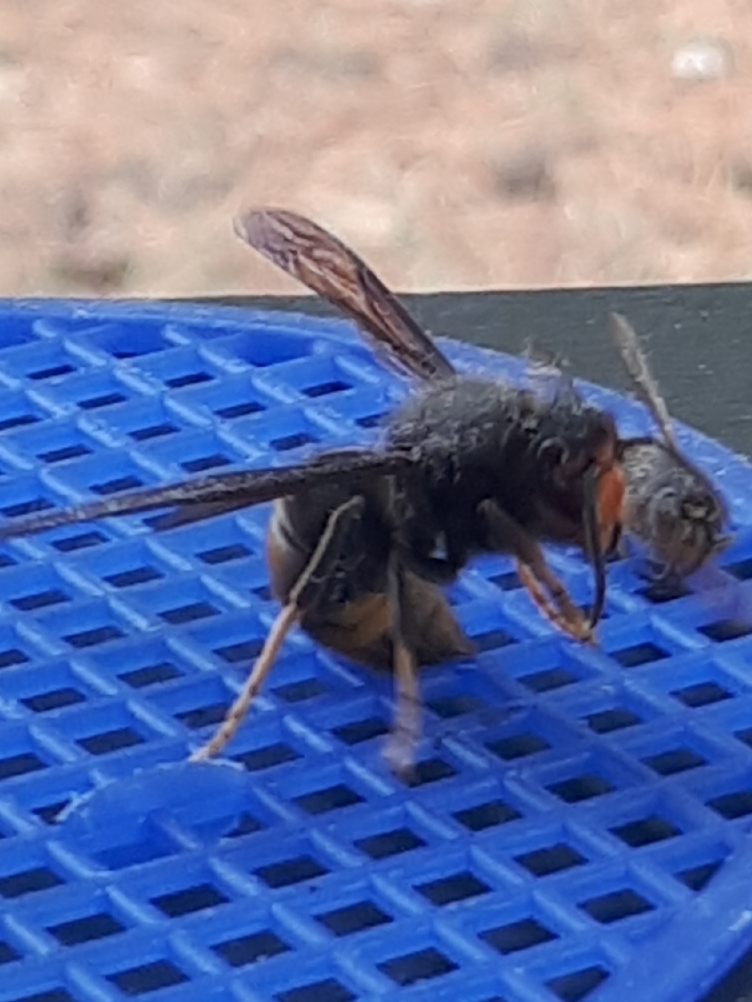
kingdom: Animalia
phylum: Arthropoda
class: Insecta
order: Hymenoptera
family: Vespidae
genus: Vespa
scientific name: Vespa velutina
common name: Asian hornet
